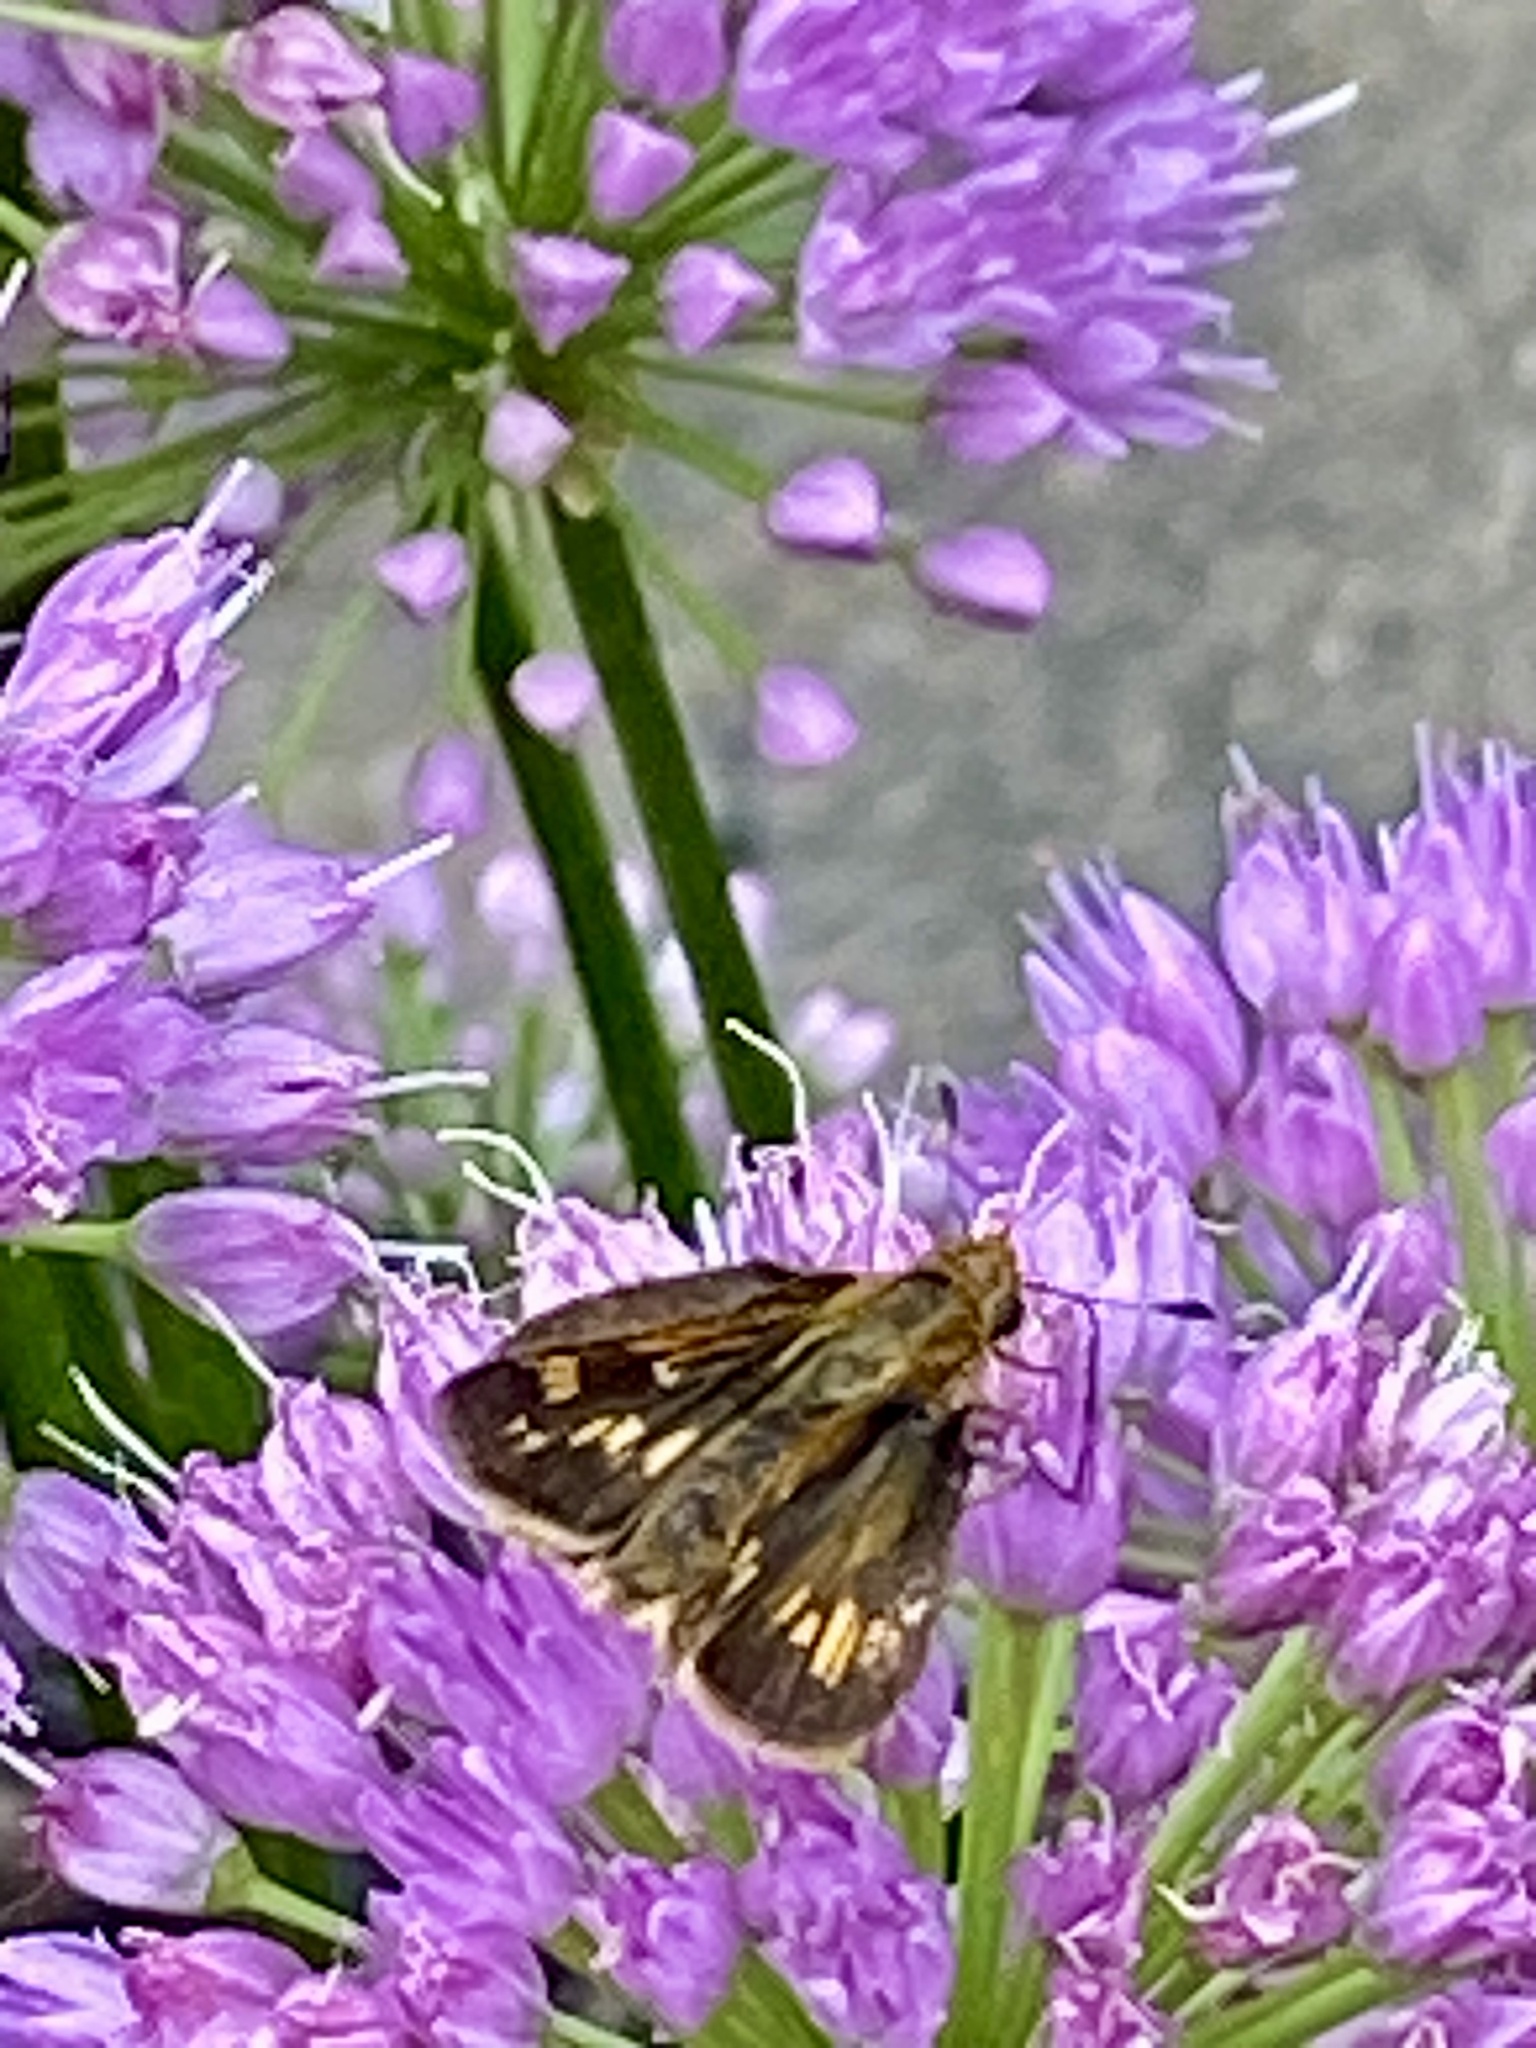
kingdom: Animalia
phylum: Arthropoda
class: Insecta
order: Lepidoptera
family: Hesperiidae
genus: Polites
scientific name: Polites coras
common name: Peck's skipper
